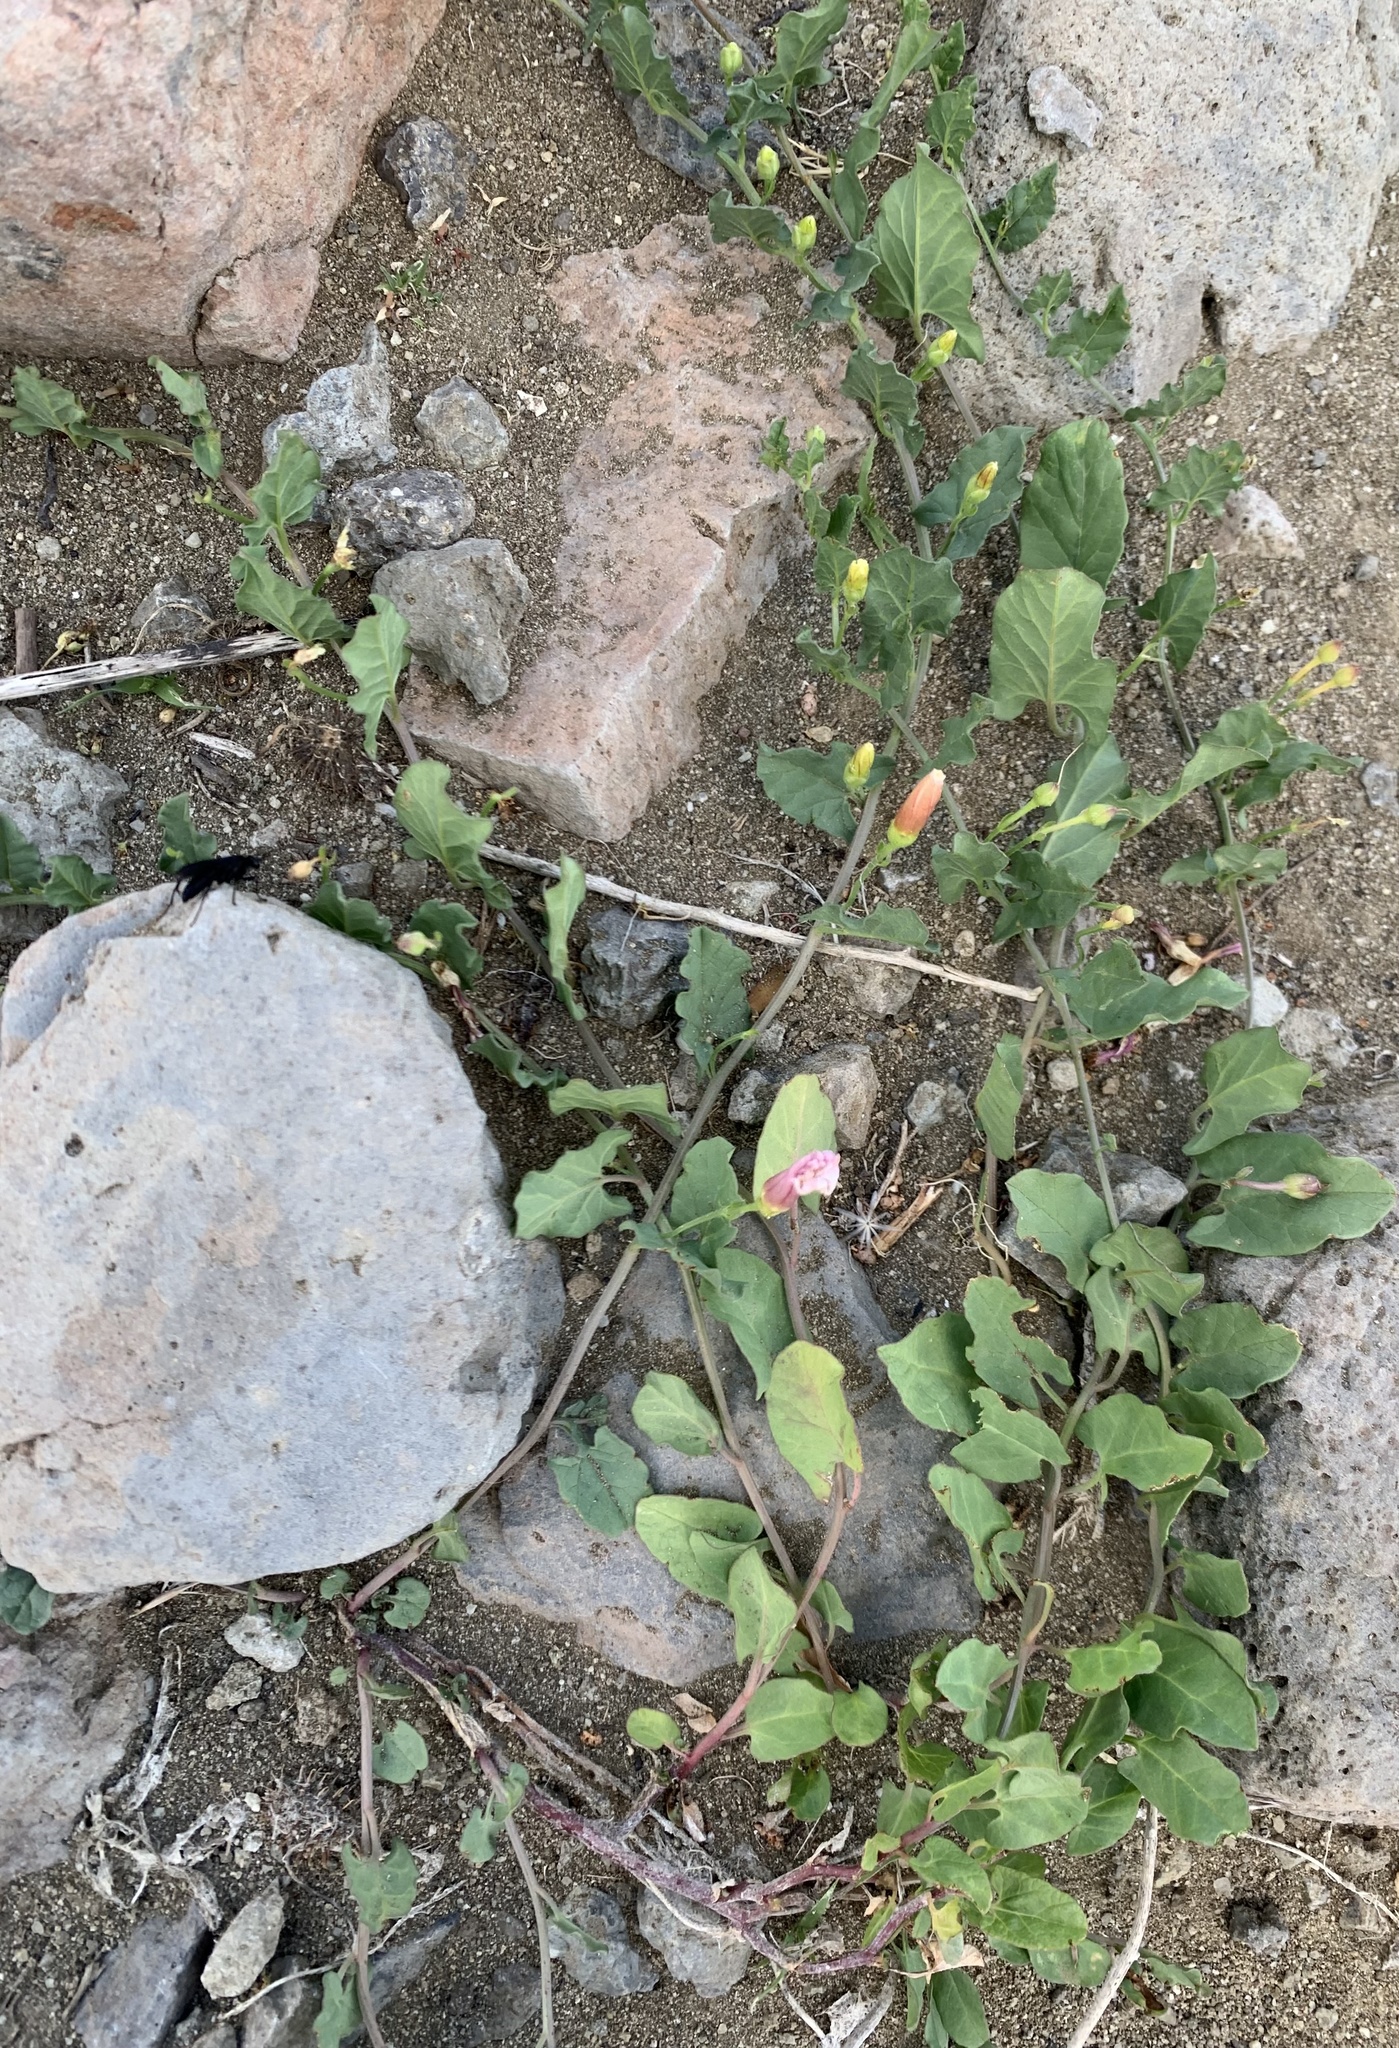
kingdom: Plantae
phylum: Tracheophyta
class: Magnoliopsida
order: Solanales
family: Convolvulaceae
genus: Convolvulus
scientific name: Convolvulus arvensis
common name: Field bindweed
